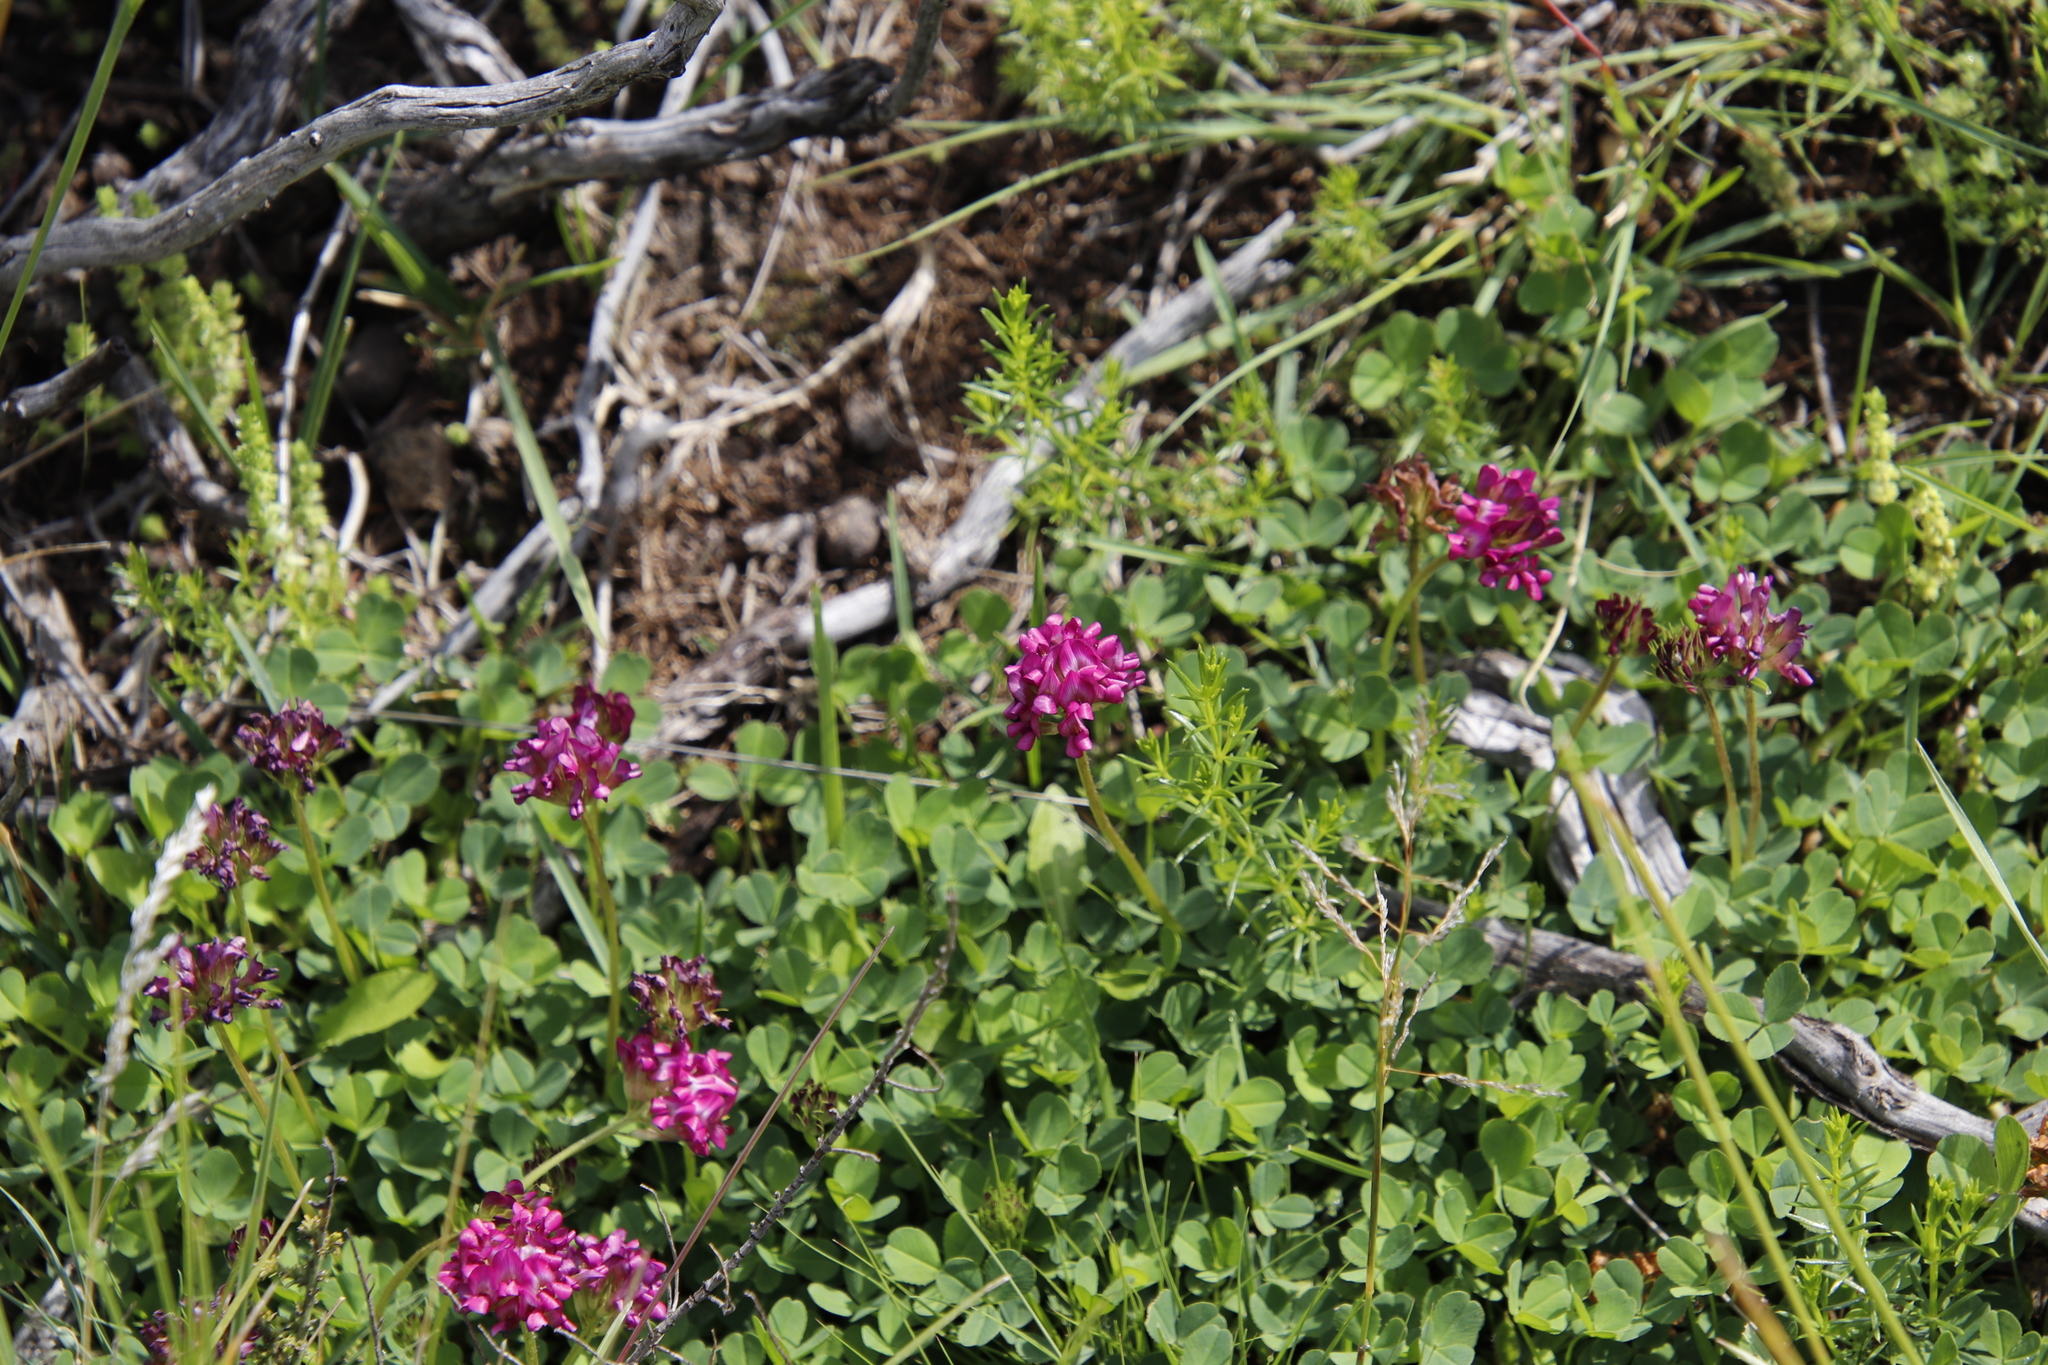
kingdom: Plantae
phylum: Tracheophyta
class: Magnoliopsida
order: Fabales
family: Fabaceae
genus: Trifolium
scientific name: Trifolium burchellianum
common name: Burchell's clover
